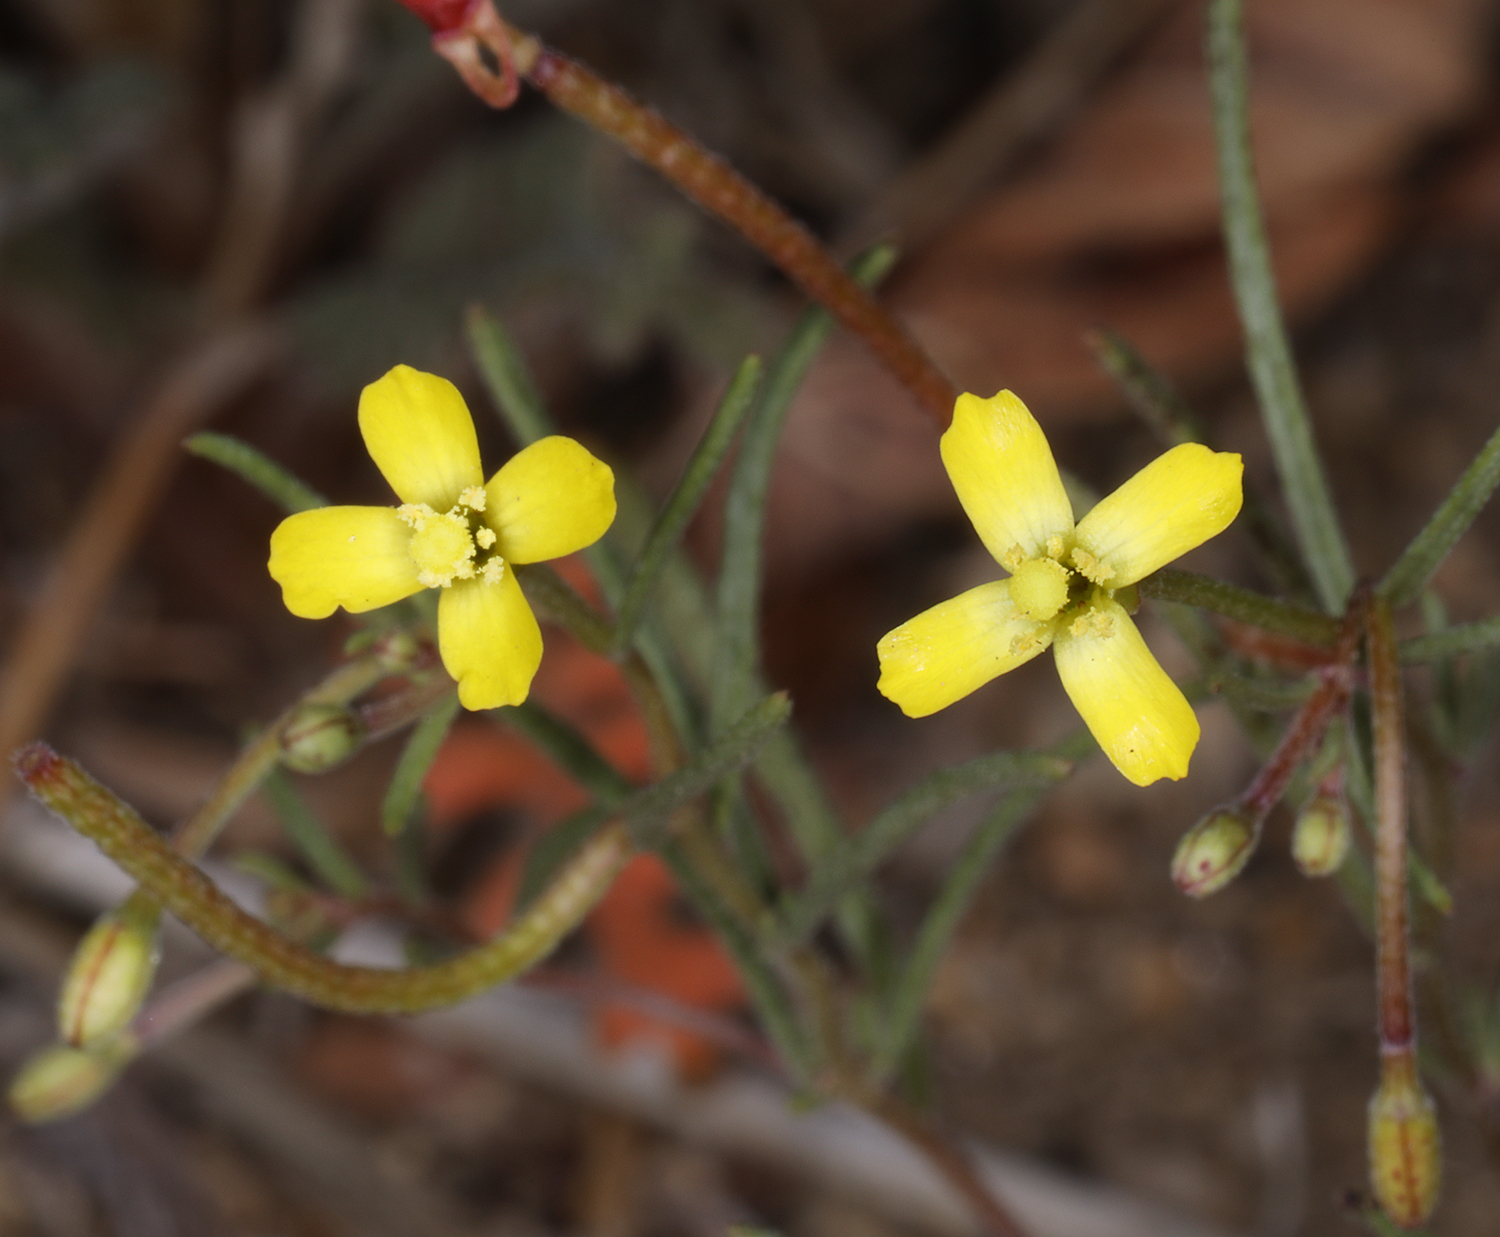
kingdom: Plantae
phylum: Tracheophyta
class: Magnoliopsida
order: Myrtales
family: Onagraceae
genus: Camissonia
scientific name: Camissonia parvula
